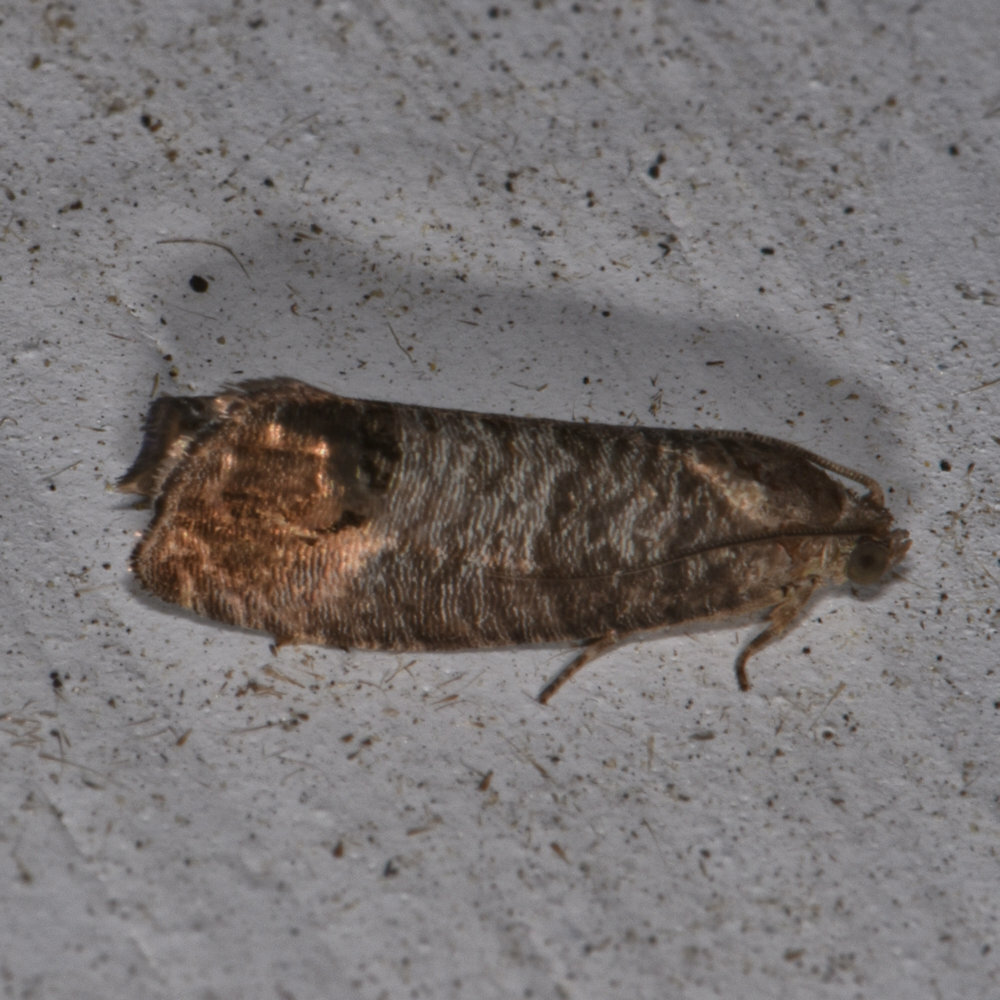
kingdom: Animalia
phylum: Arthropoda
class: Insecta
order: Lepidoptera
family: Tortricidae
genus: Cydia
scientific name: Cydia pomonella
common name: Codling moth
